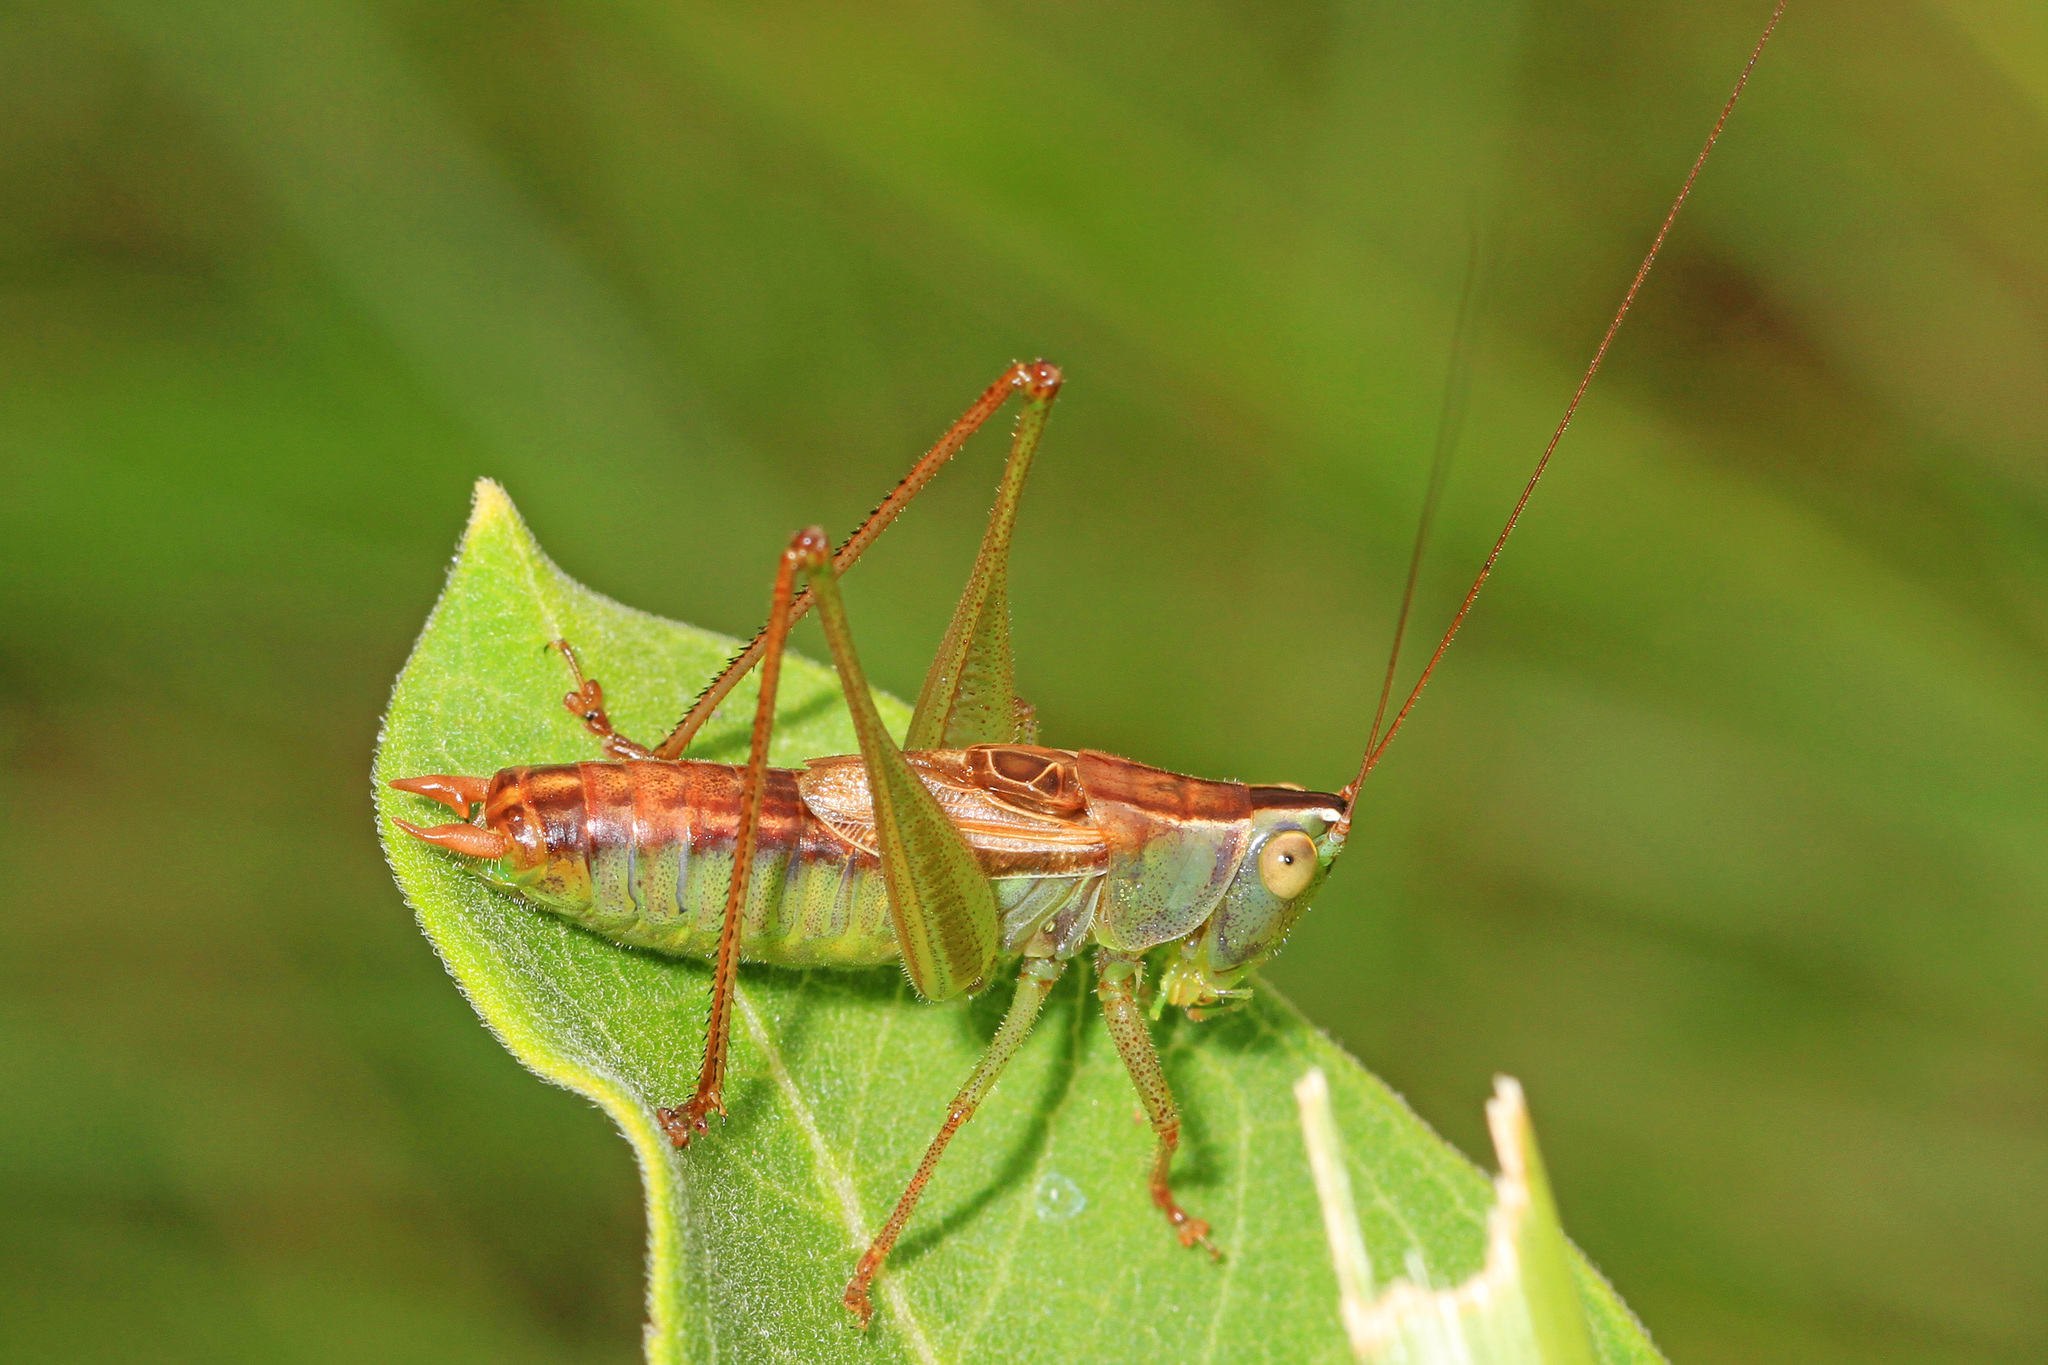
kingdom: Animalia
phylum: Arthropoda
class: Insecta
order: Orthoptera
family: Tettigoniidae
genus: Conocephalus
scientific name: Conocephalus strictus
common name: Straight-lanced katydid
